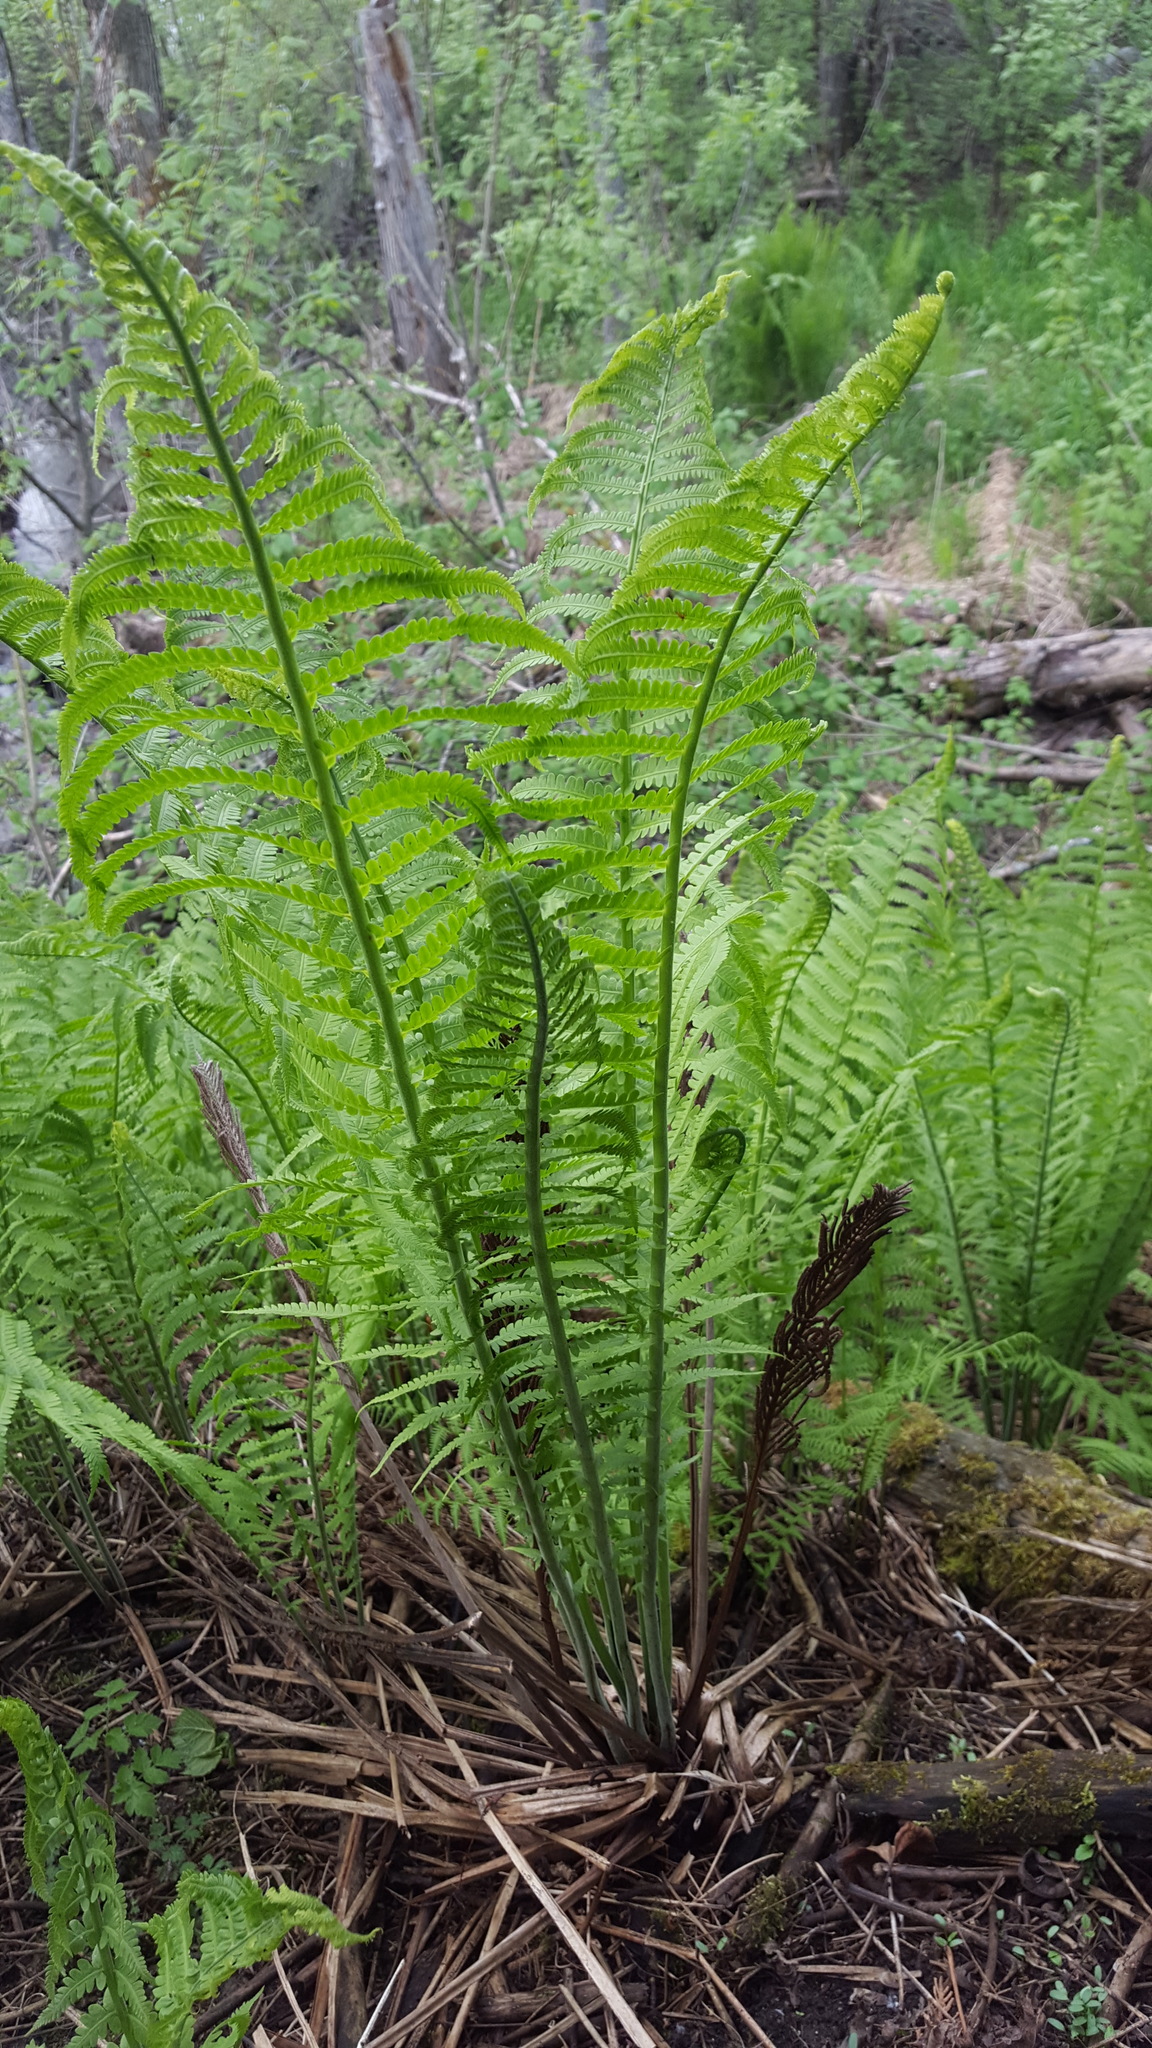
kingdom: Plantae
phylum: Tracheophyta
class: Polypodiopsida
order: Polypodiales
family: Onocleaceae
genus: Matteuccia
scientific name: Matteuccia struthiopteris
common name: Ostrich fern
